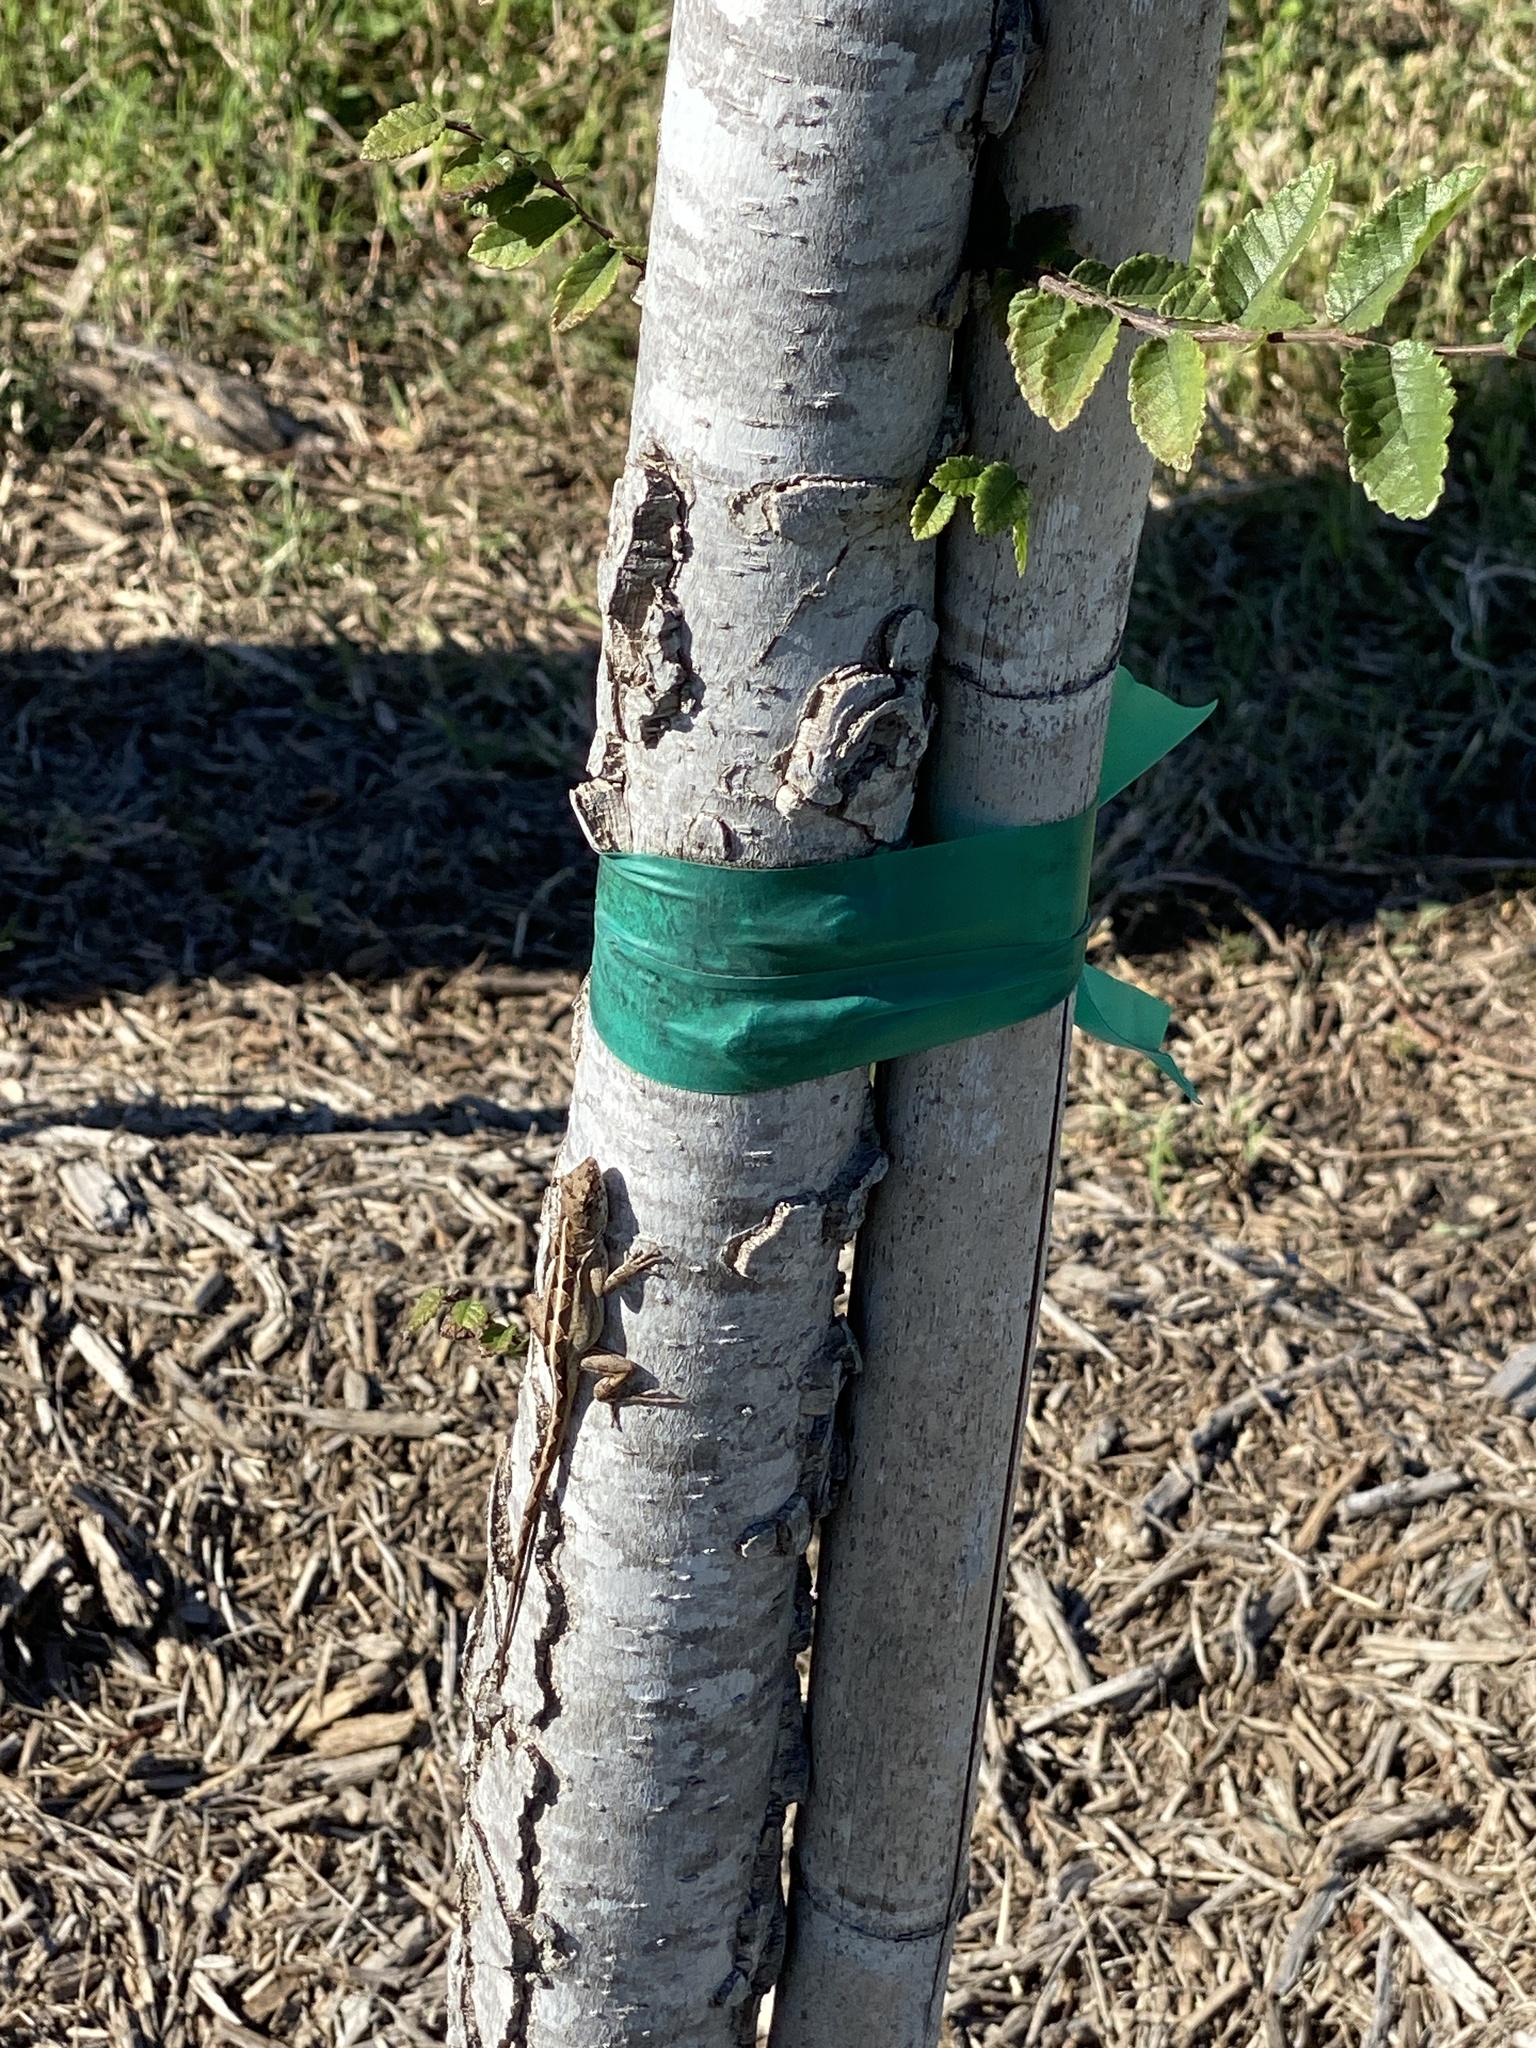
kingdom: Animalia
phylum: Chordata
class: Squamata
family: Dactyloidae
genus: Anolis
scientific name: Anolis sagrei
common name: Brown anole
